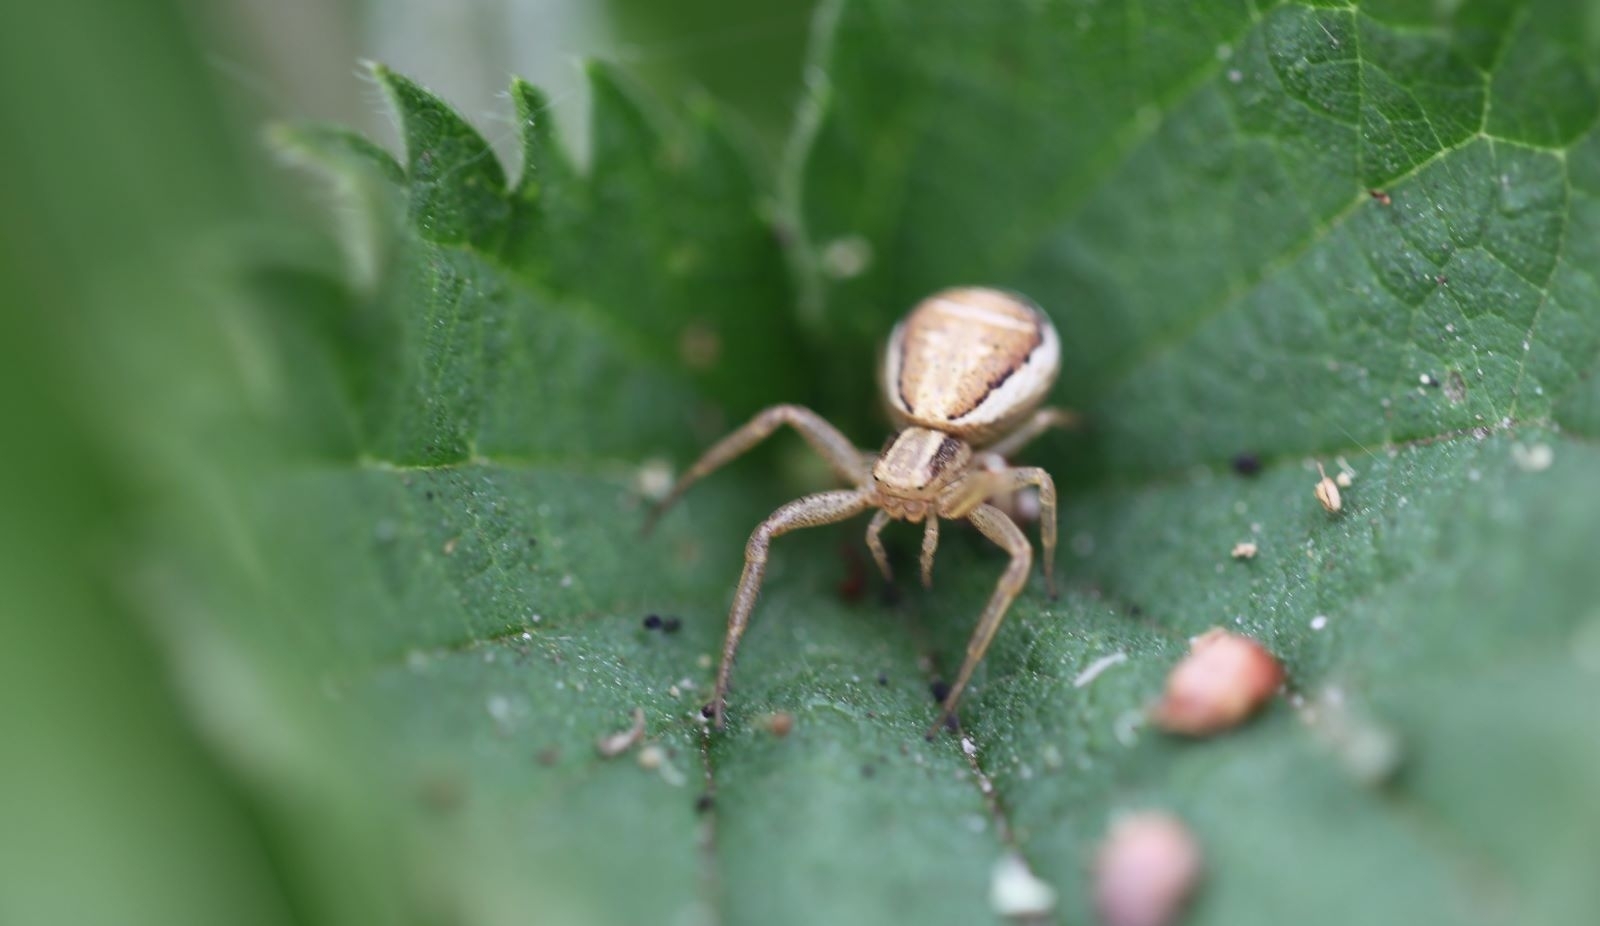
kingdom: Animalia
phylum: Arthropoda
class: Arachnida
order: Araneae
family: Thomisidae
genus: Xysticus
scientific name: Xysticus ulmi
